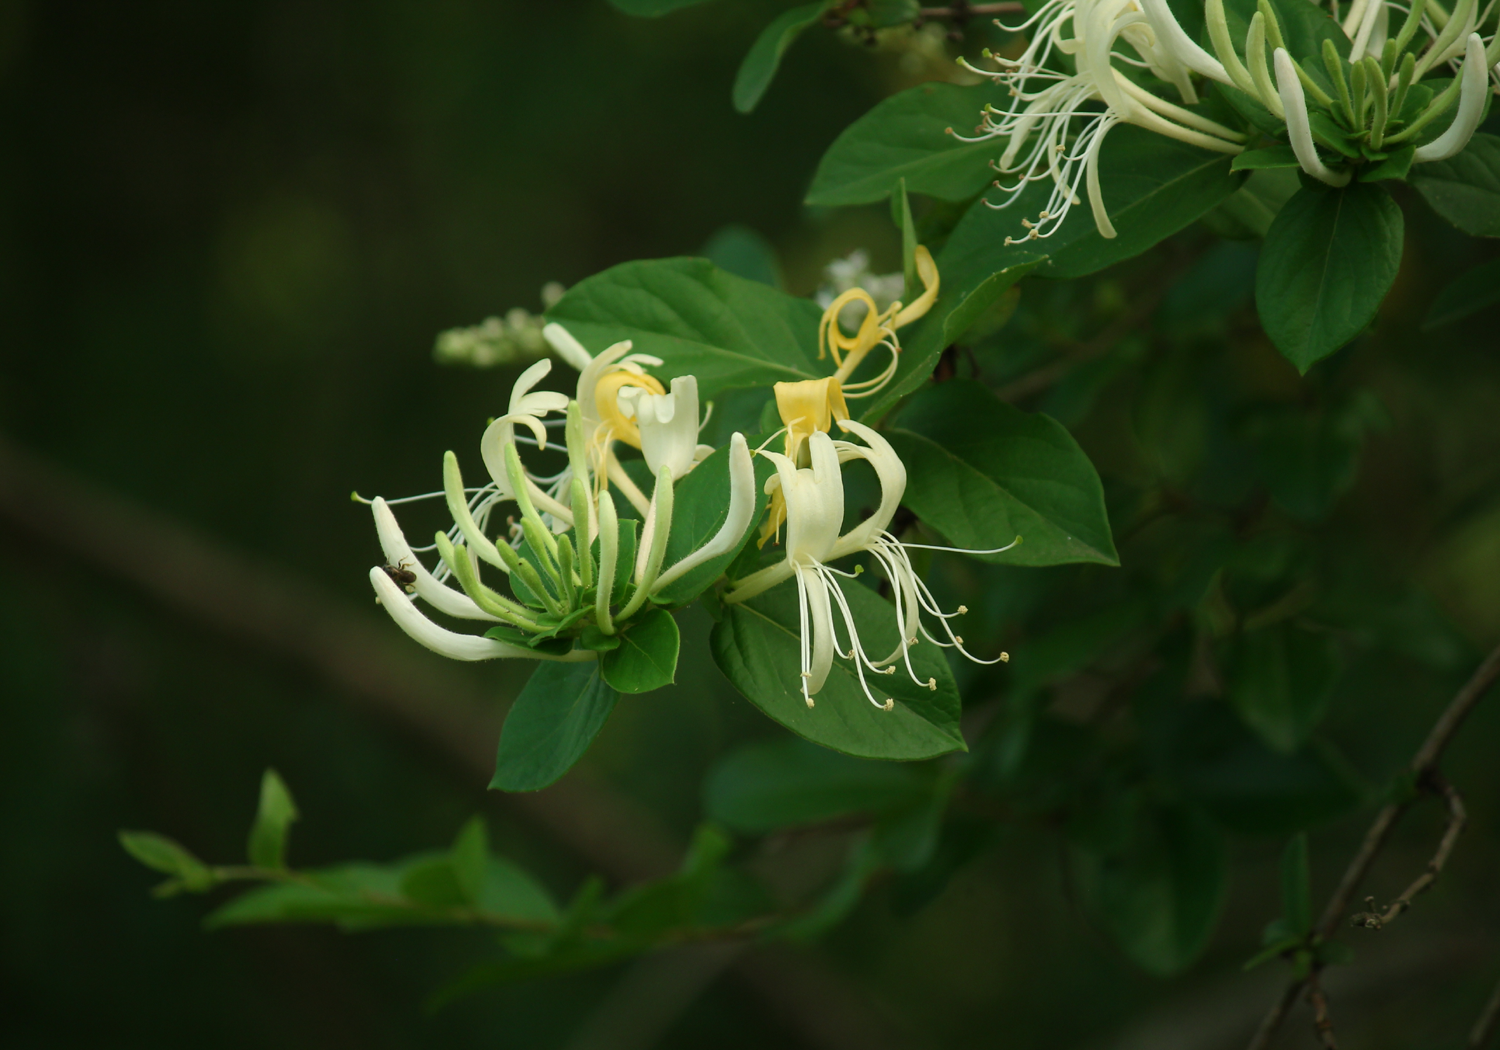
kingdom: Plantae
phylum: Tracheophyta
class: Magnoliopsida
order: Dipsacales
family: Caprifoliaceae
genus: Lonicera
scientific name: Lonicera japonica
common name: Japanese honeysuckle
